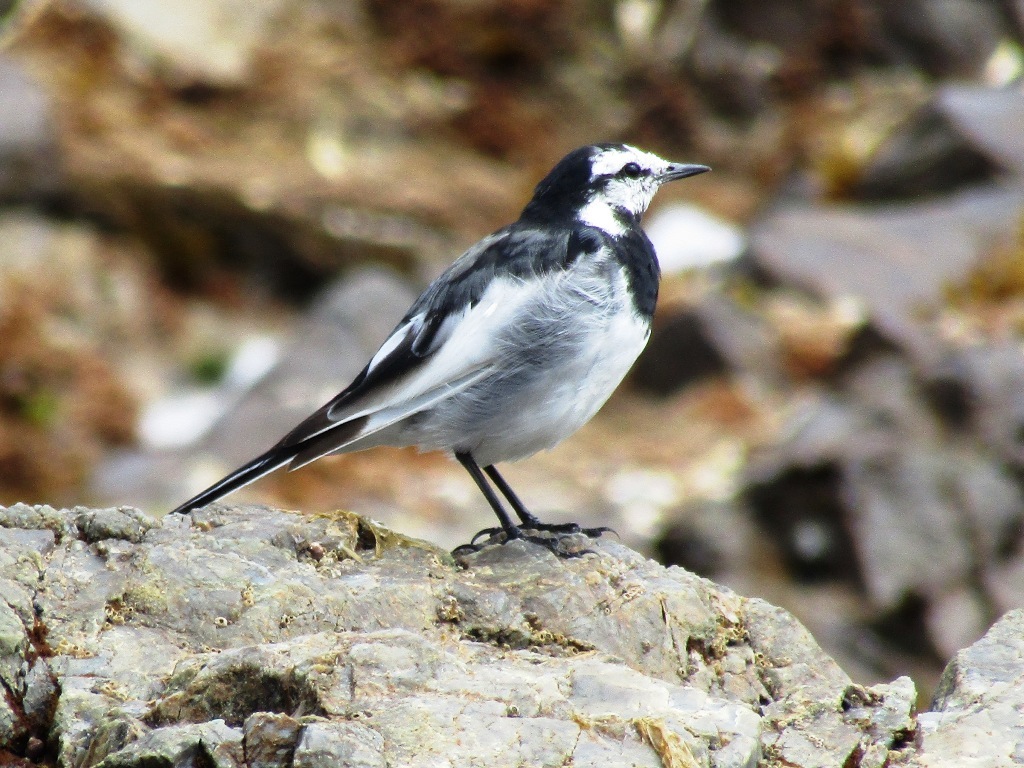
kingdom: Animalia
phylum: Chordata
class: Aves
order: Passeriformes
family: Motacillidae
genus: Motacilla
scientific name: Motacilla alba
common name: White wagtail
